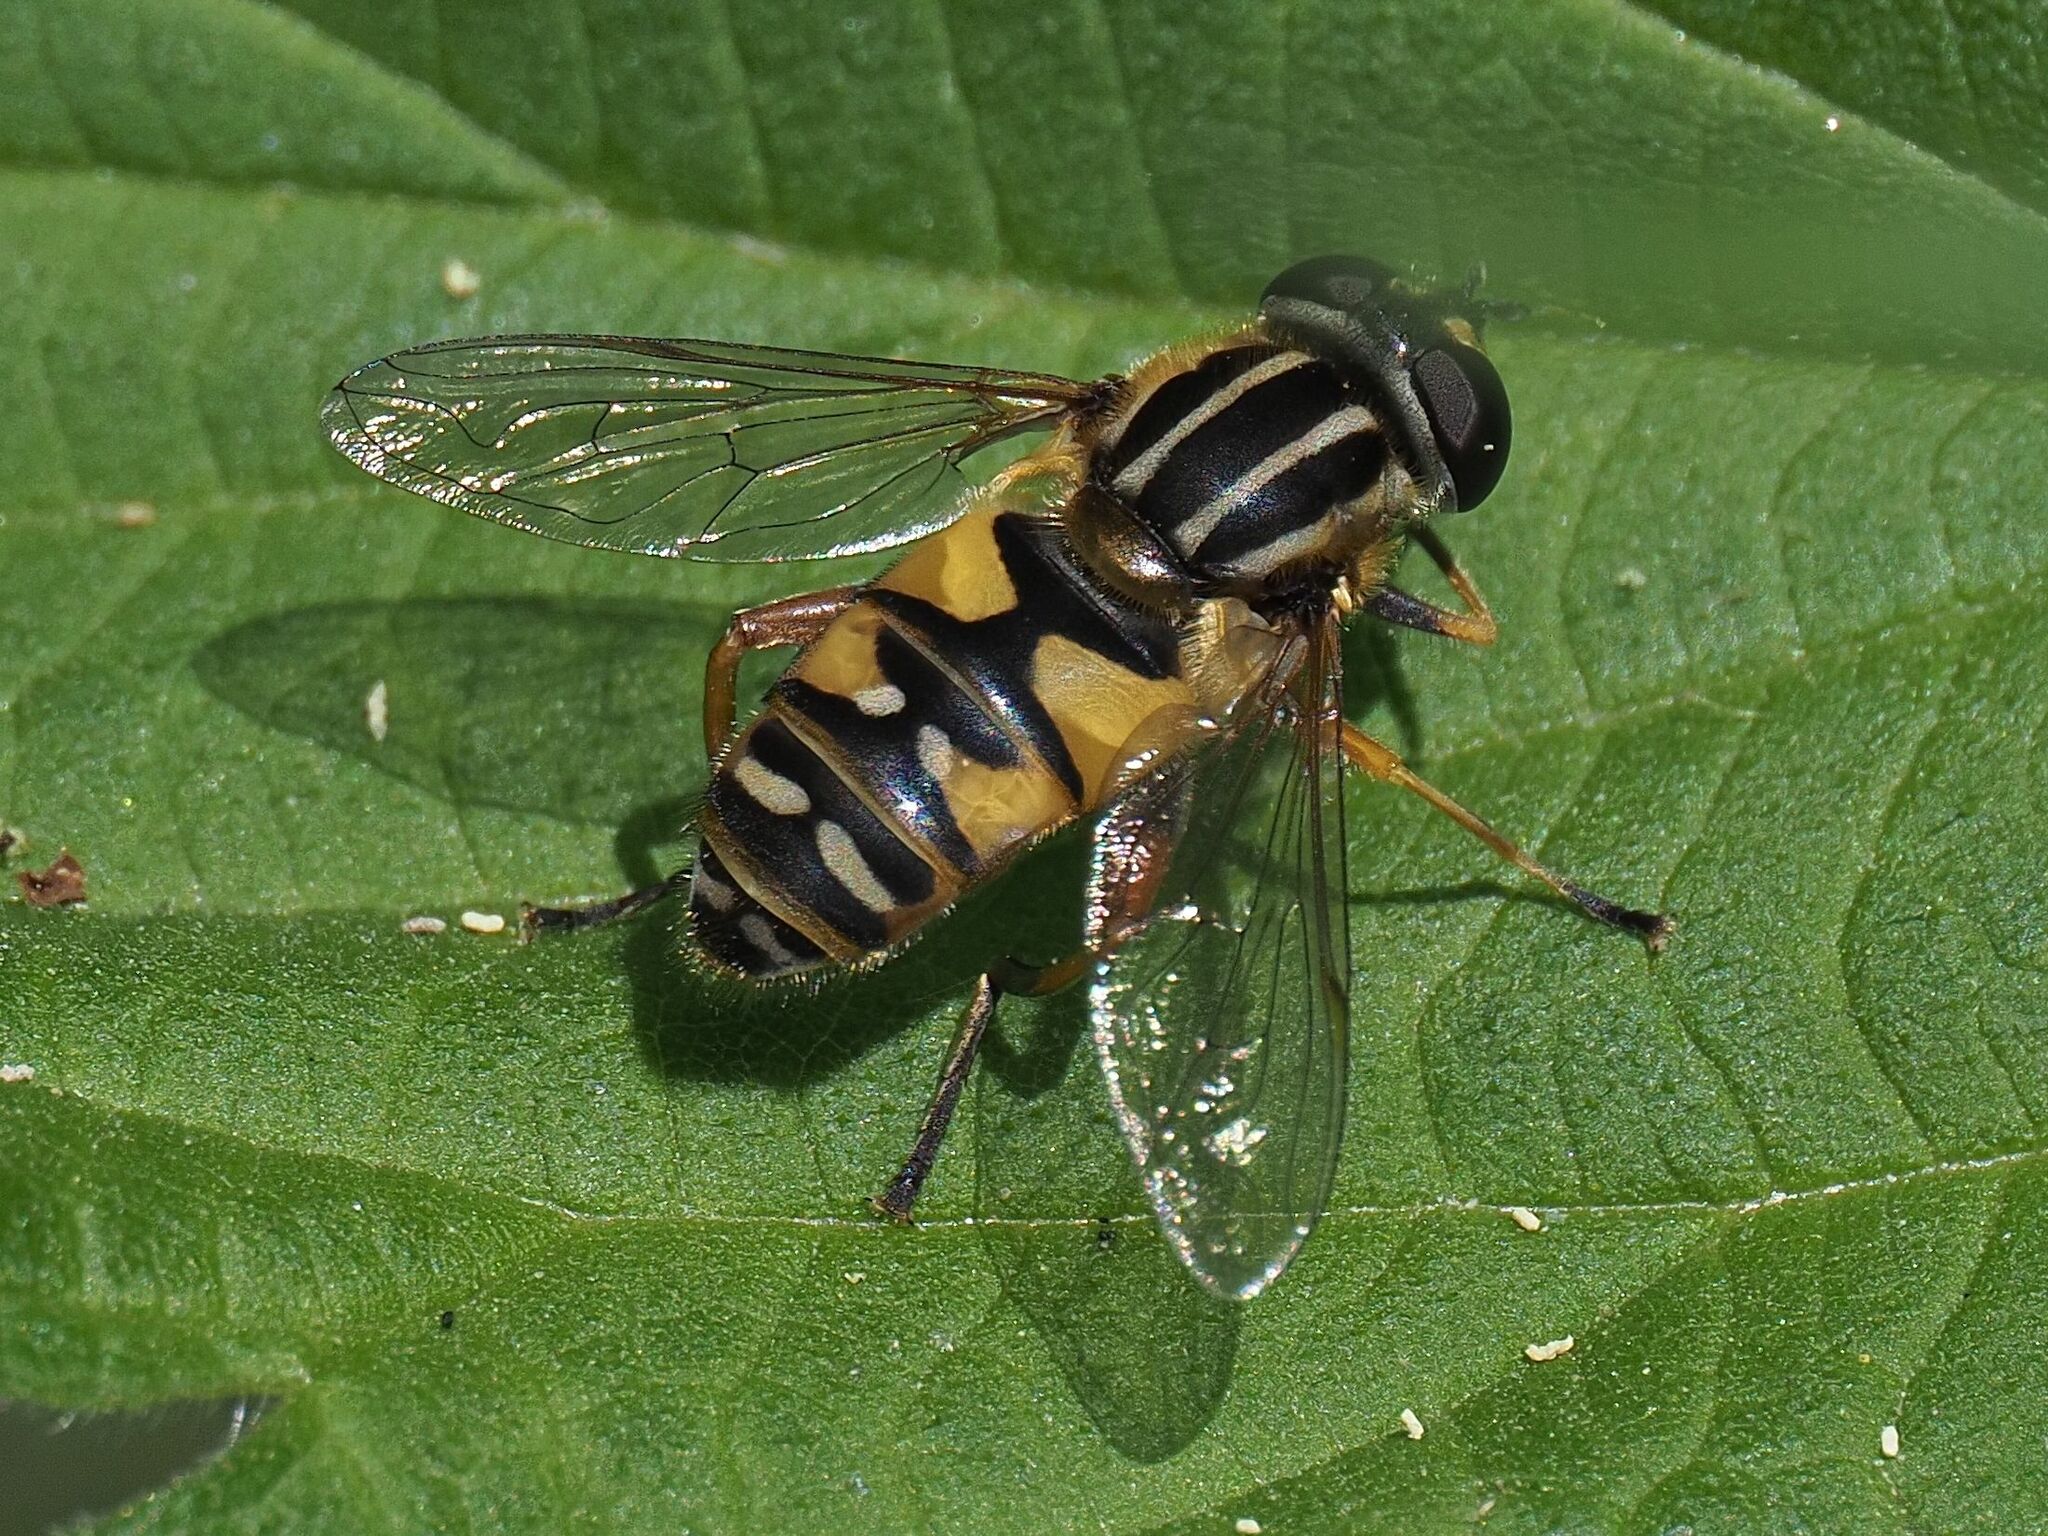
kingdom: Animalia
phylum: Arthropoda
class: Insecta
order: Diptera
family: Syrphidae
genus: Helophilus
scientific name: Helophilus pendulus
